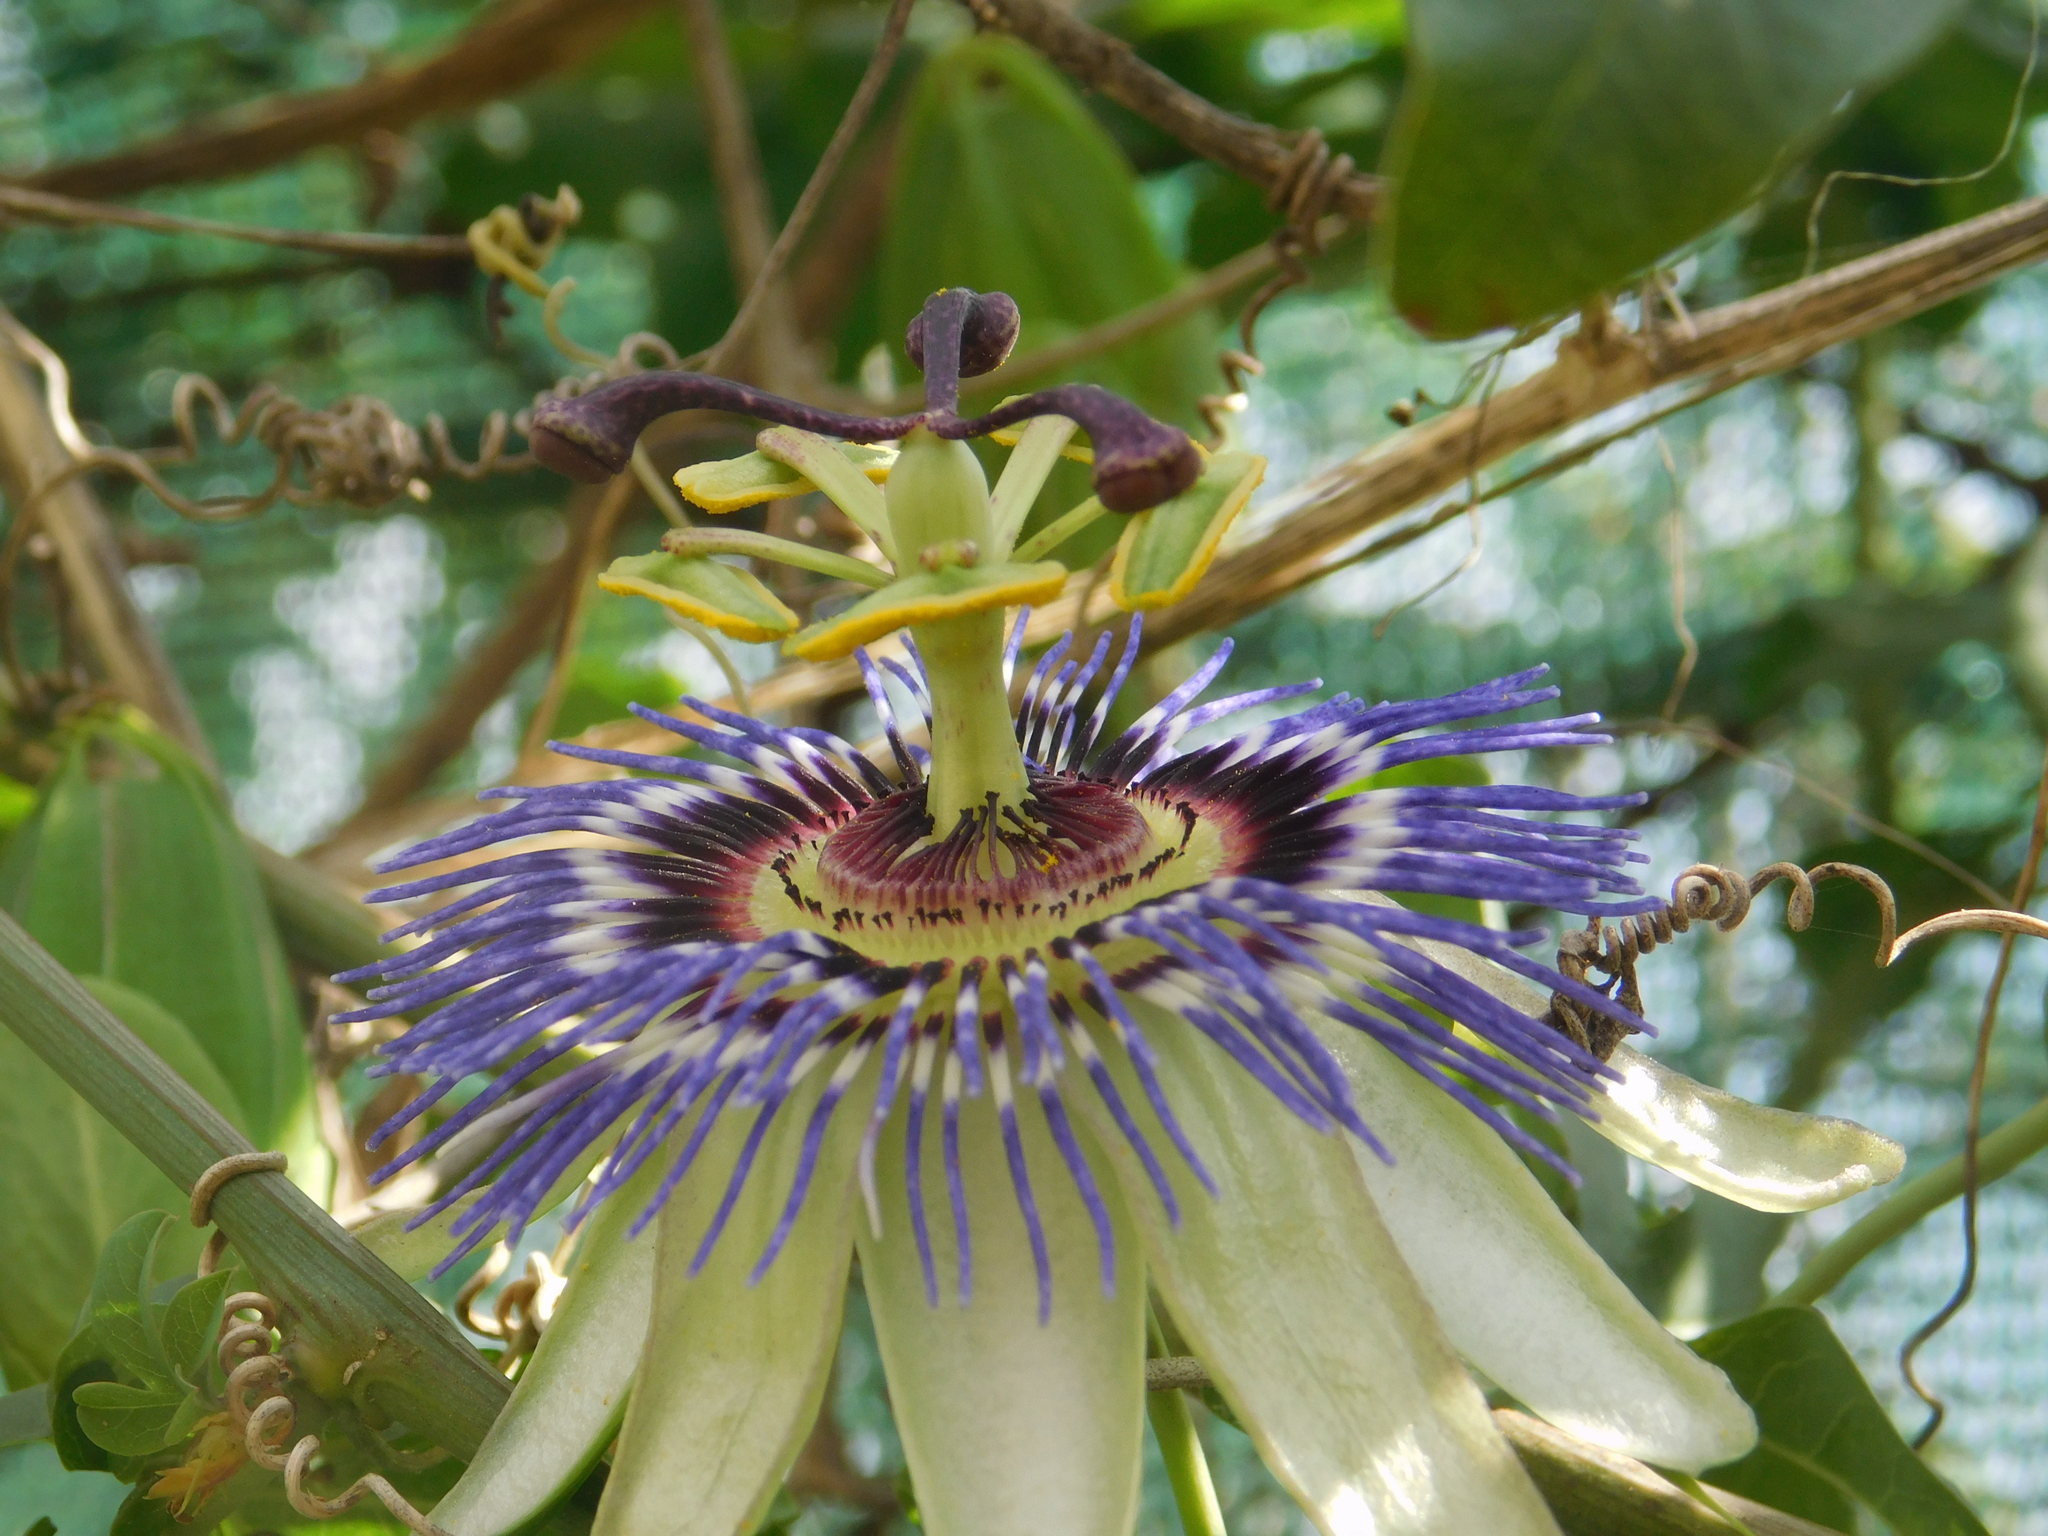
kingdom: Plantae
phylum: Tracheophyta
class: Magnoliopsida
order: Malpighiales
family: Passifloraceae
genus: Passiflora
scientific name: Passiflora caerulea
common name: Blue passionflower
